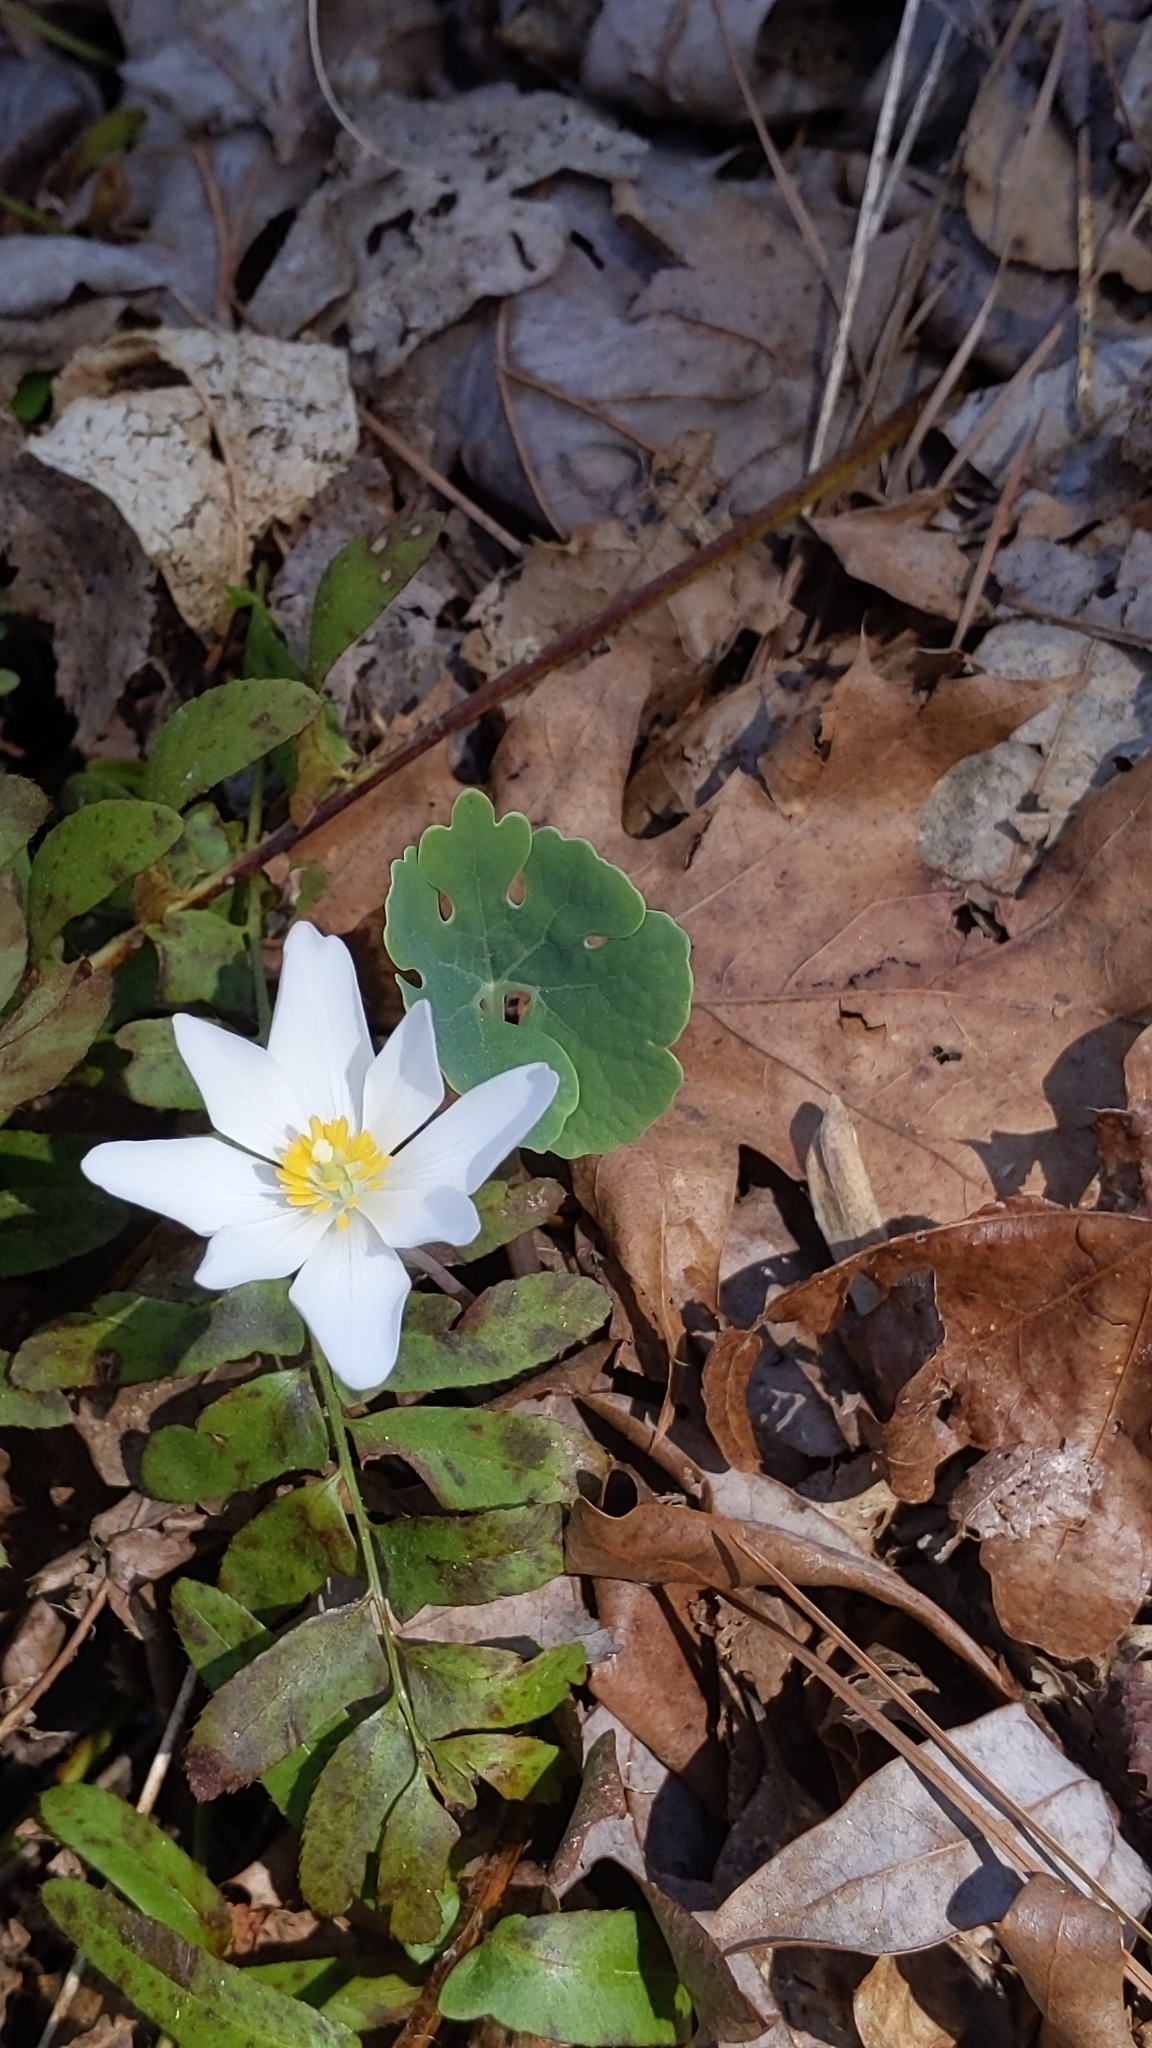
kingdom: Plantae
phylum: Tracheophyta
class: Magnoliopsida
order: Ranunculales
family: Papaveraceae
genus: Sanguinaria
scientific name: Sanguinaria canadensis
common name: Bloodroot
